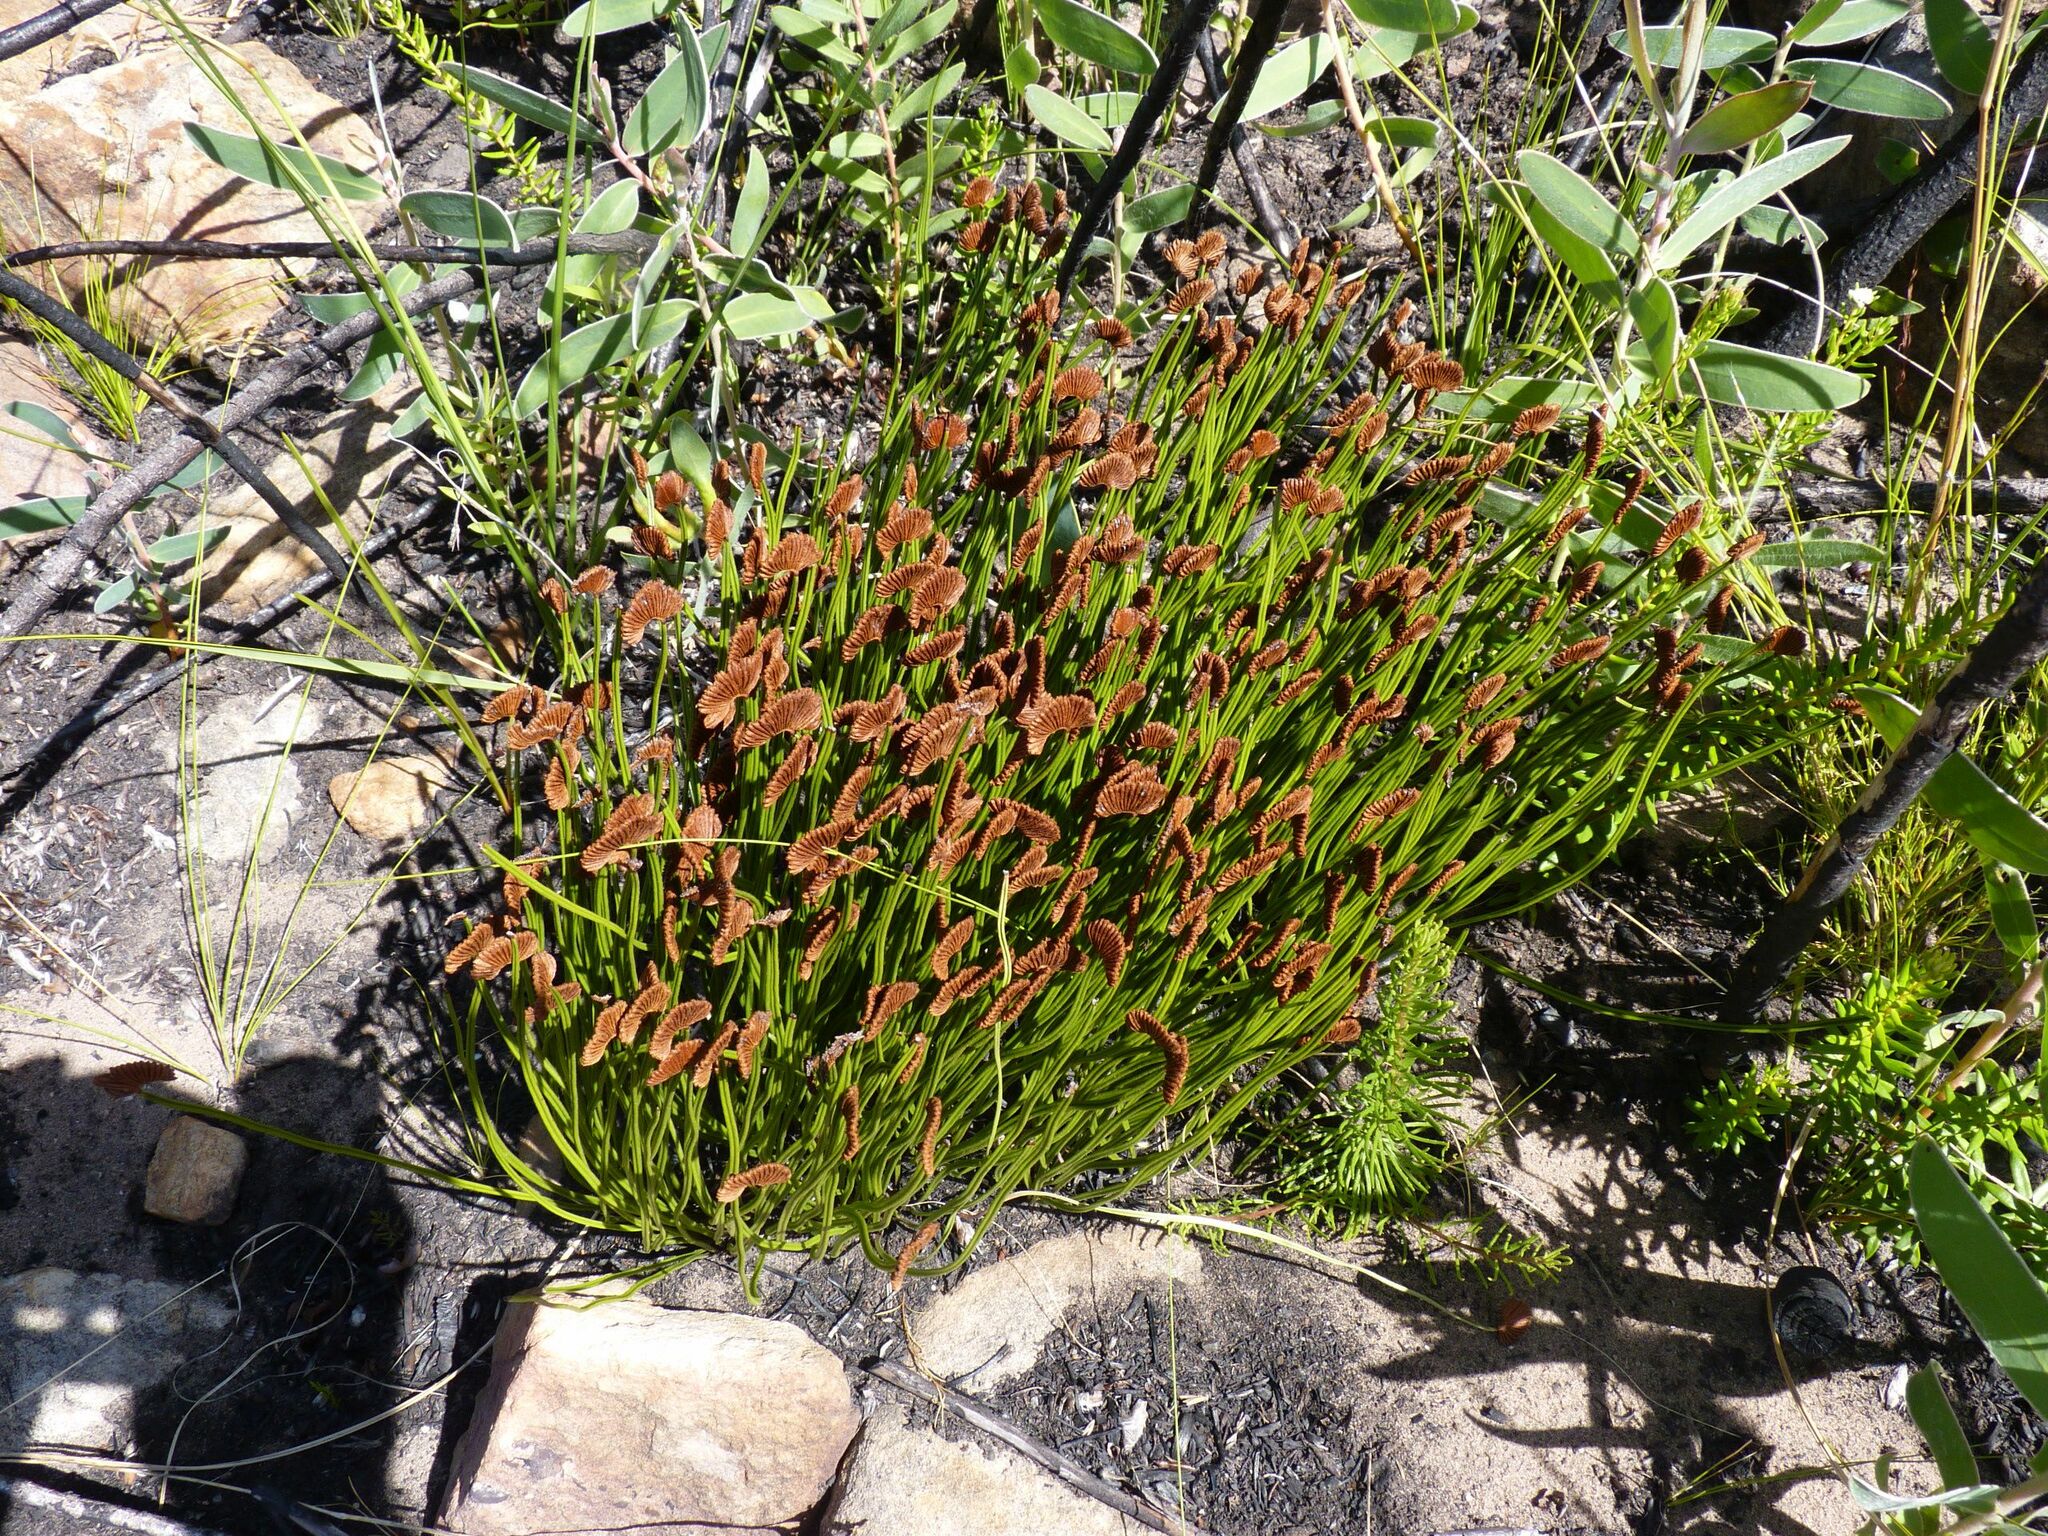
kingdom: Plantae
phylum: Tracheophyta
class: Polypodiopsida
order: Schizaeales
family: Schizaeaceae
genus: Schizaea
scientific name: Schizaea pectinata
